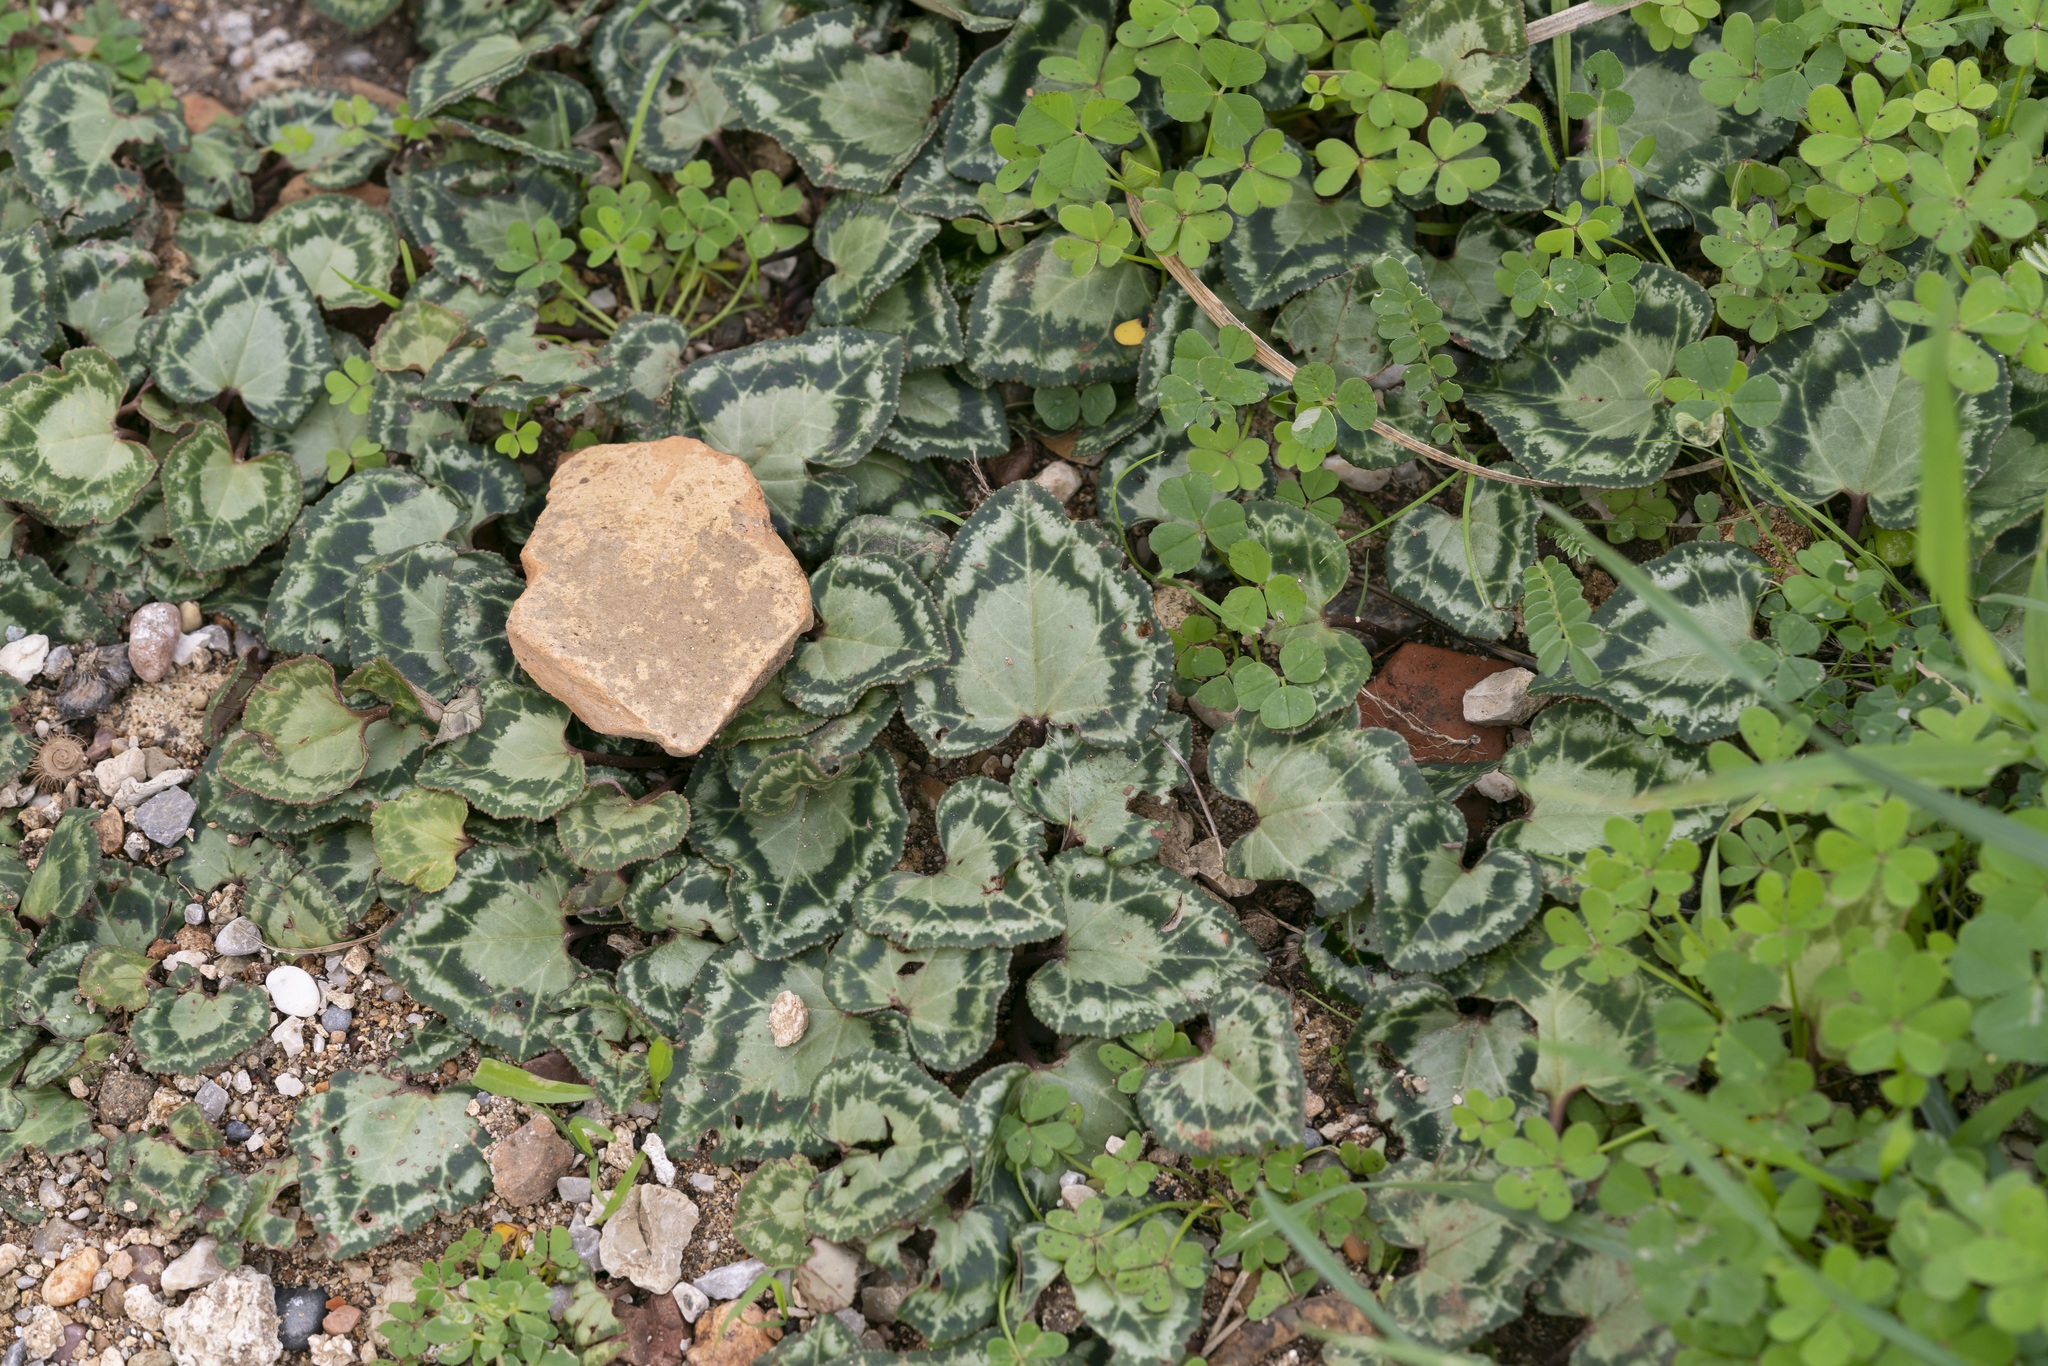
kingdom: Plantae
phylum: Tracheophyta
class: Magnoliopsida
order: Ericales
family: Primulaceae
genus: Cyclamen
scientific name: Cyclamen graecum
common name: Greek cyclamen
